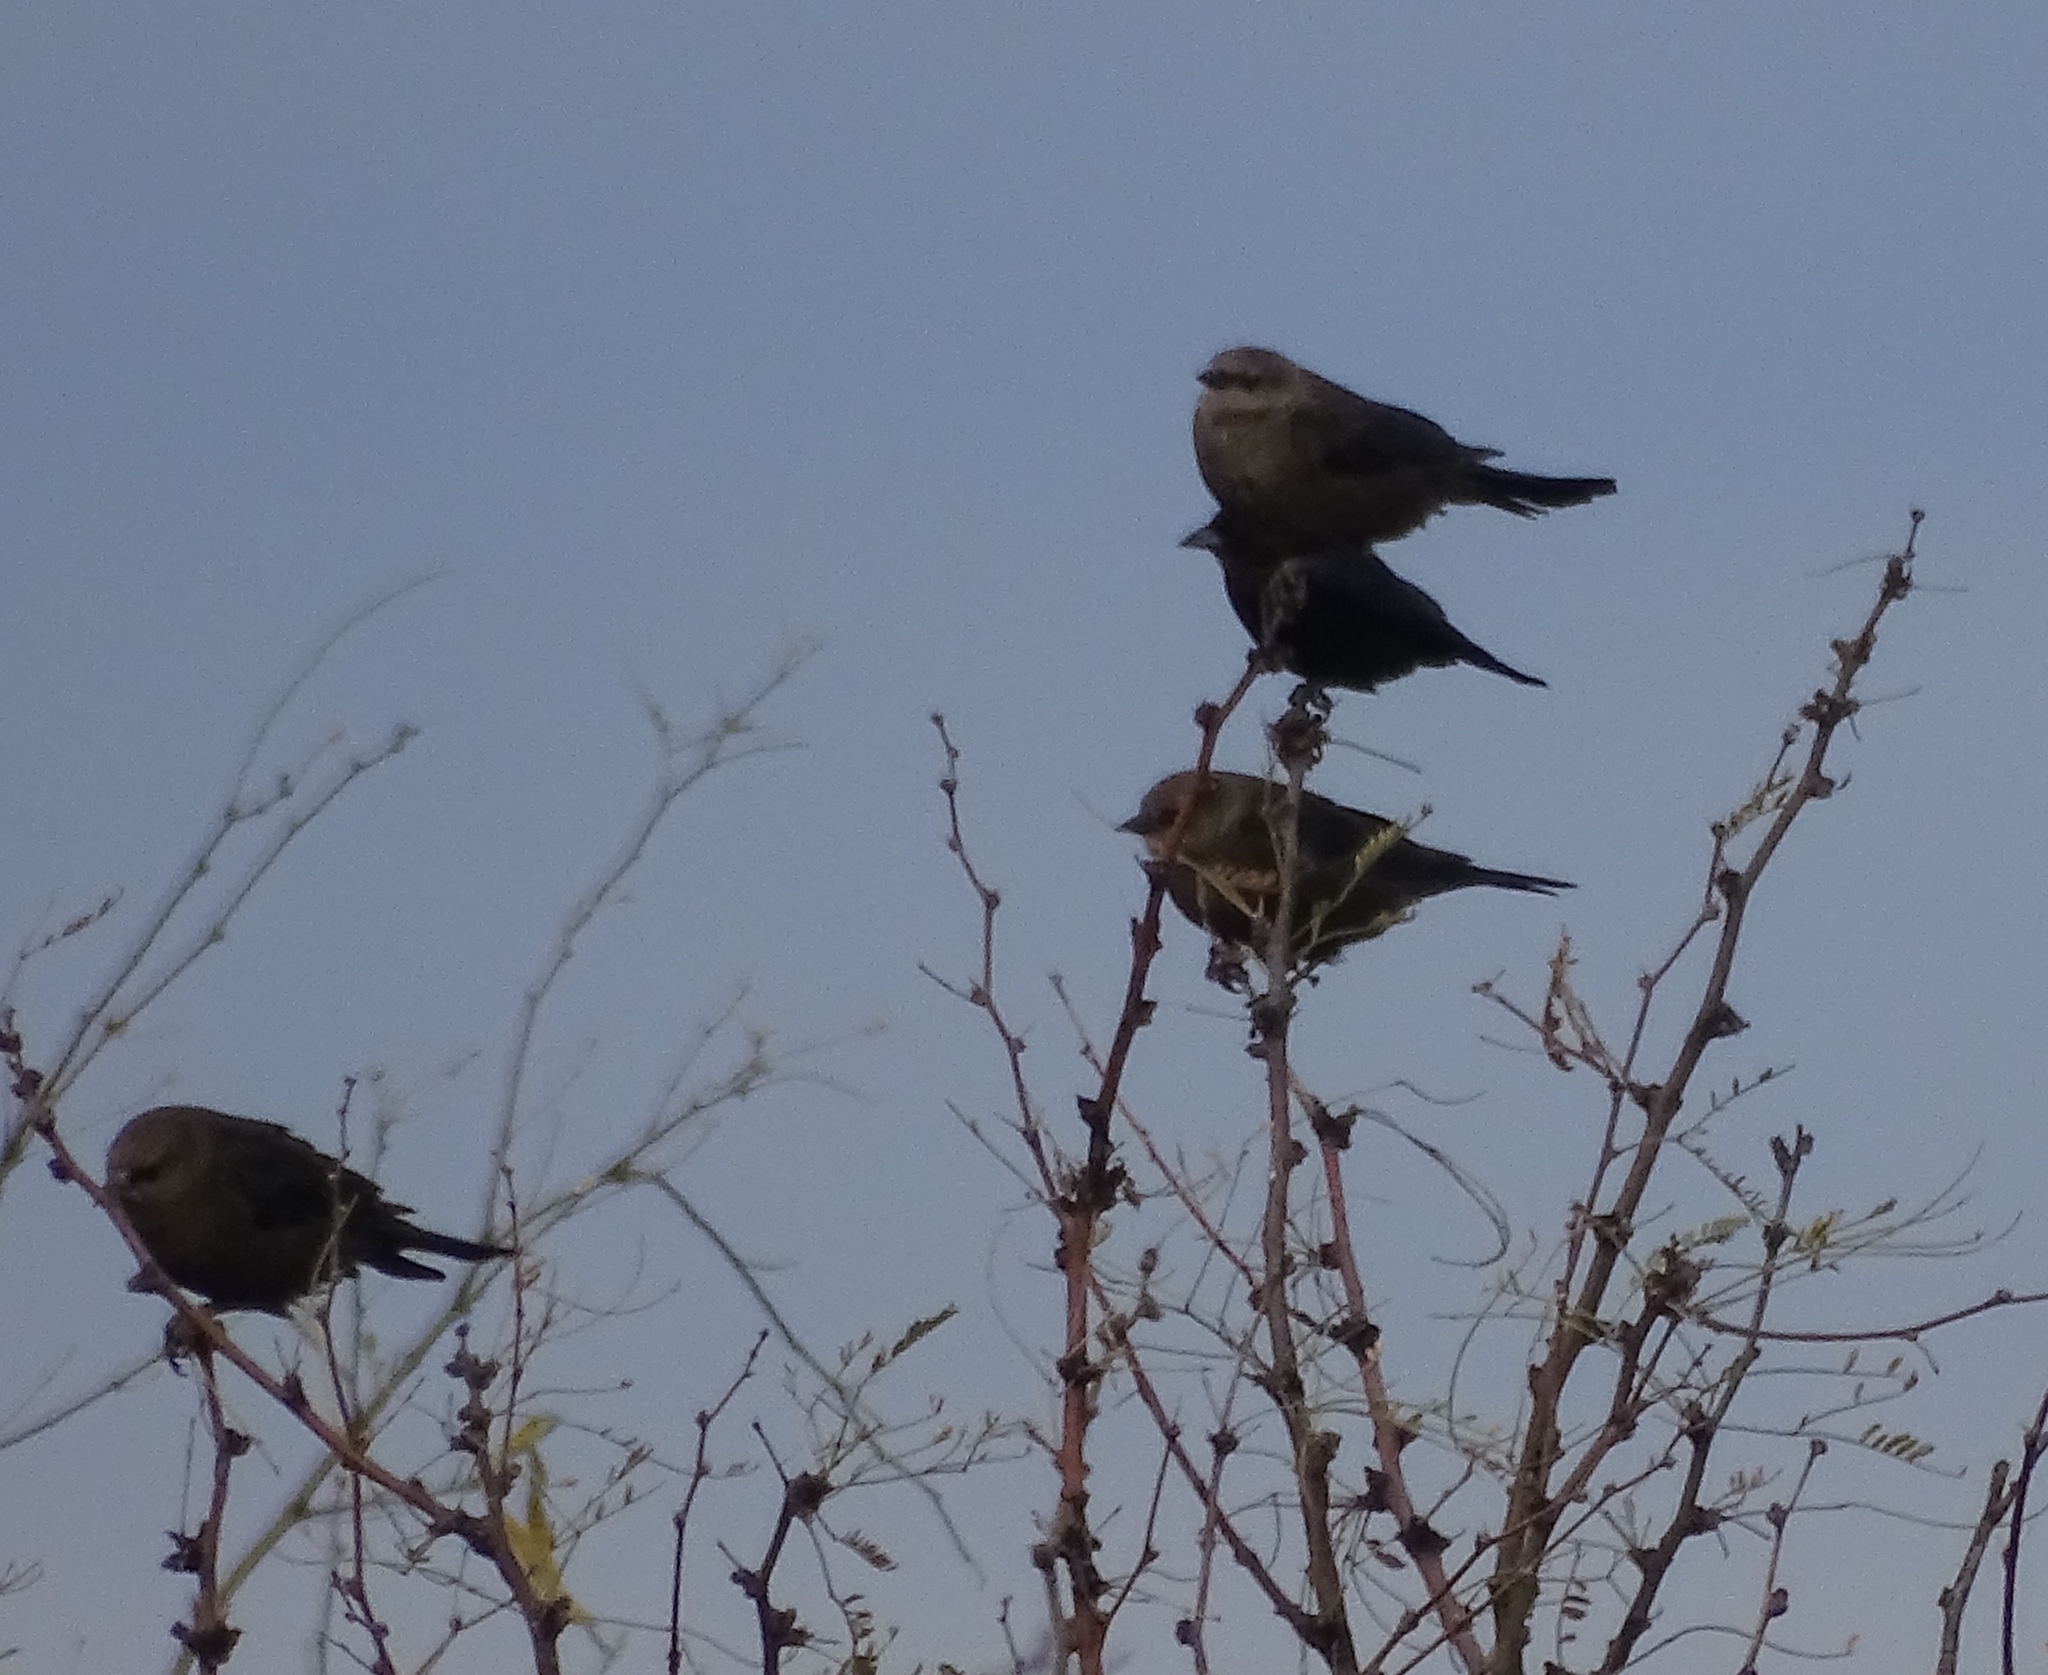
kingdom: Animalia
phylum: Chordata
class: Aves
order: Passeriformes
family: Icteridae
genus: Euphagus
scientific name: Euphagus cyanocephalus
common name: Brewer's blackbird
